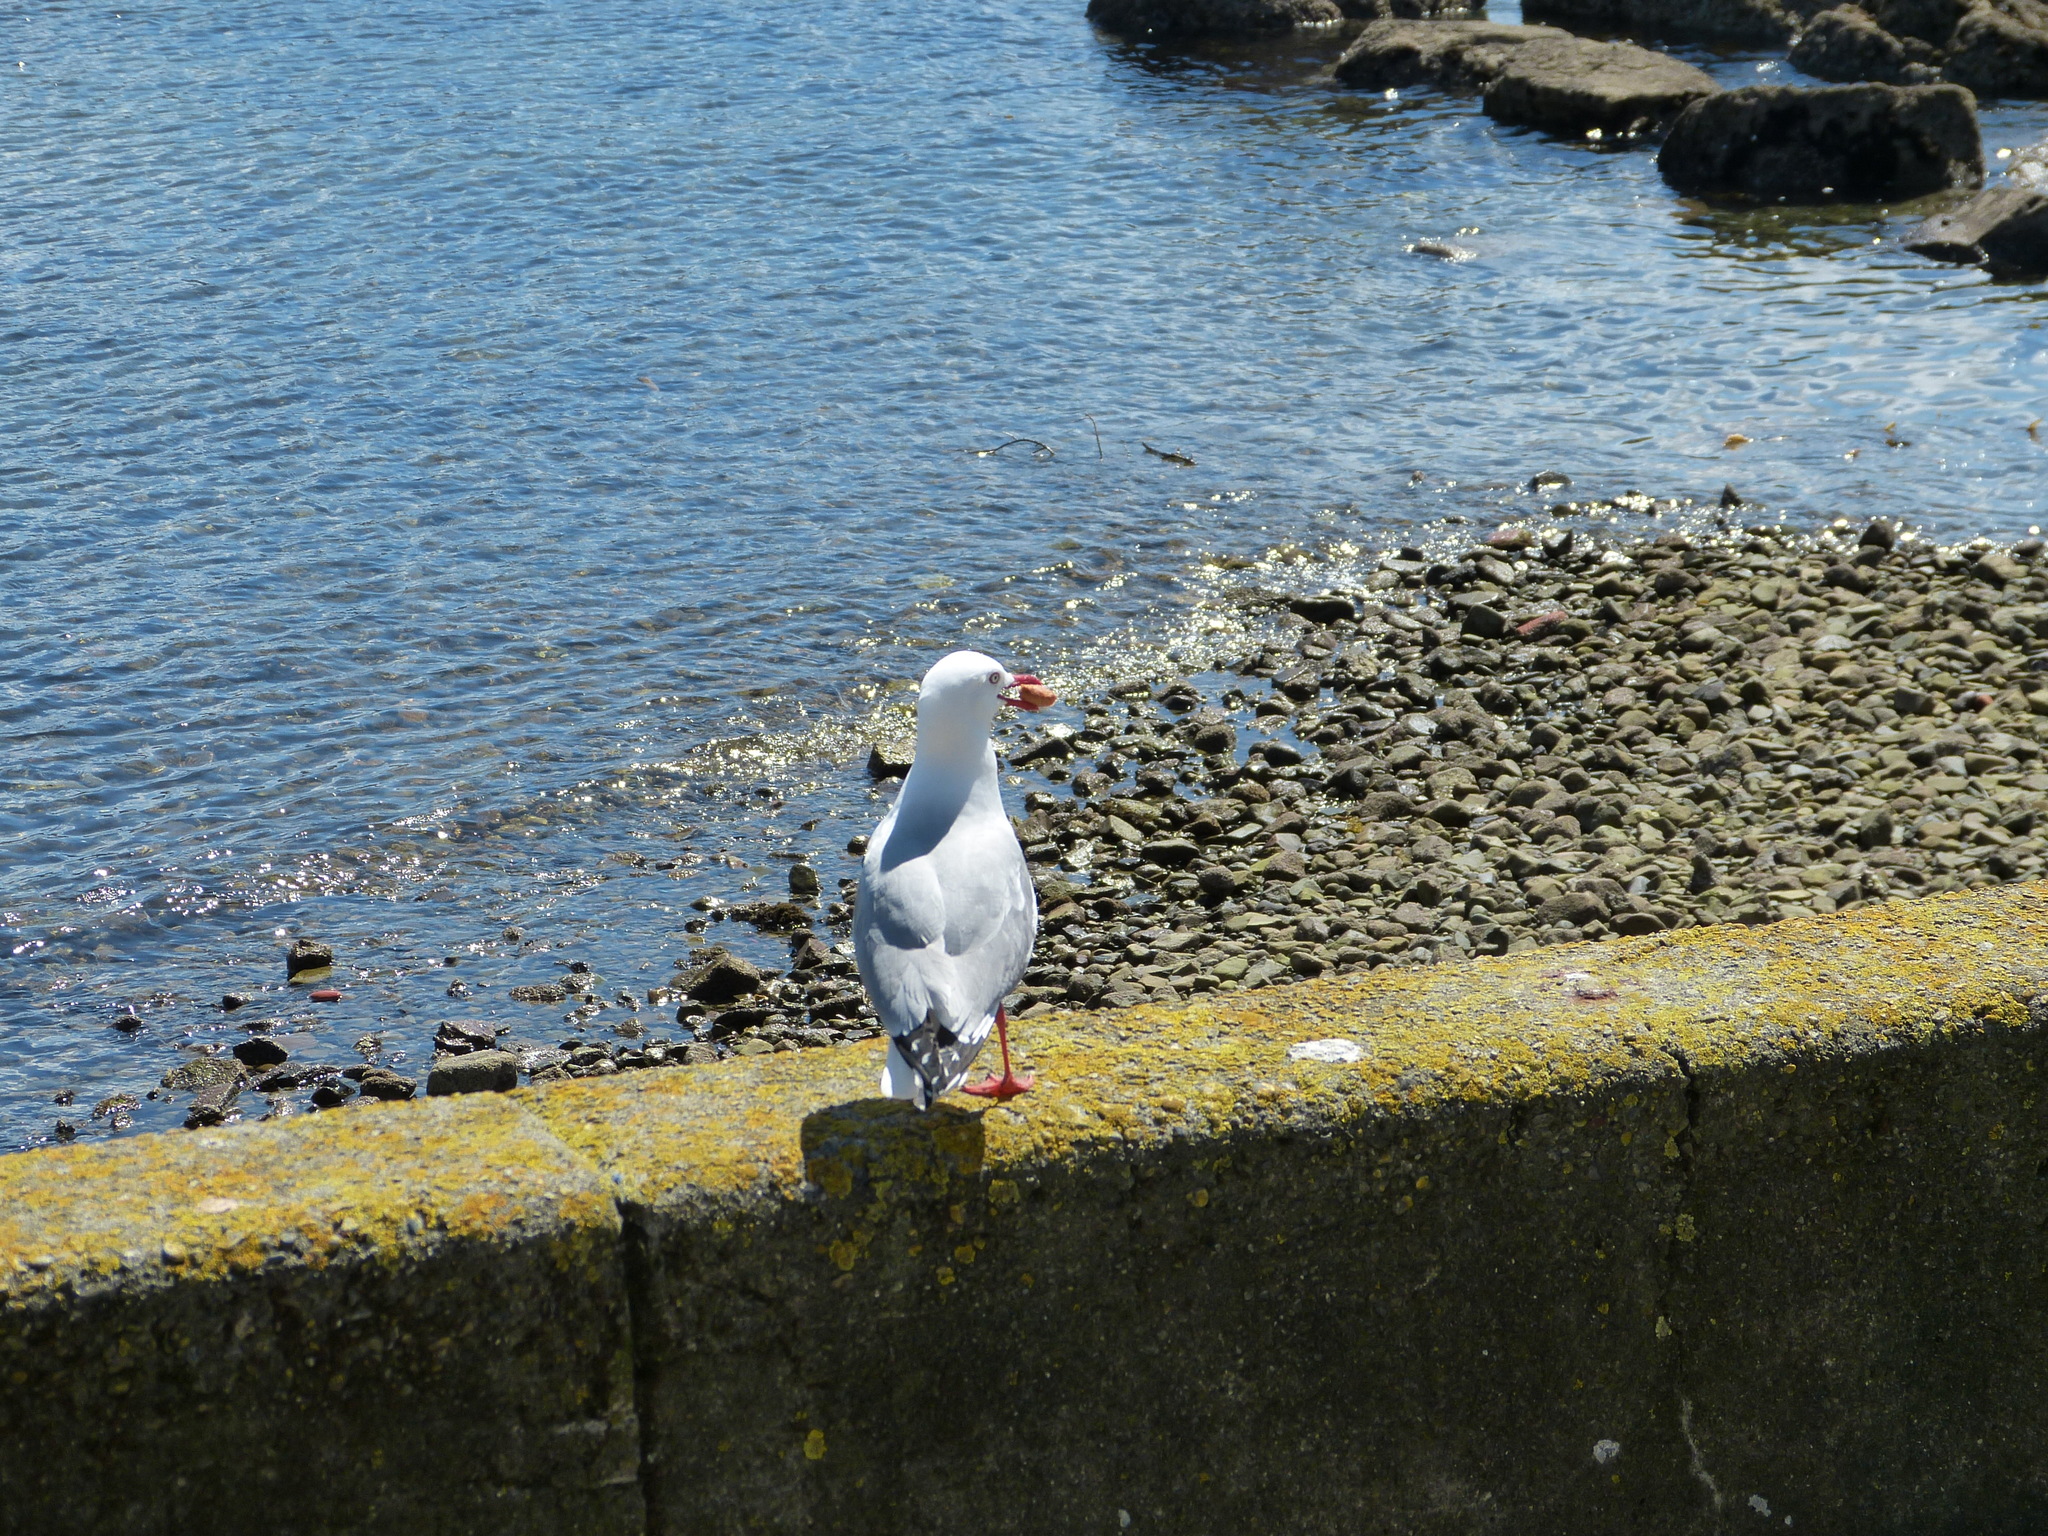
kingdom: Animalia
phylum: Chordata
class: Aves
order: Charadriiformes
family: Laridae
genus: Chroicocephalus
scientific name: Chroicocephalus novaehollandiae
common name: Silver gull
